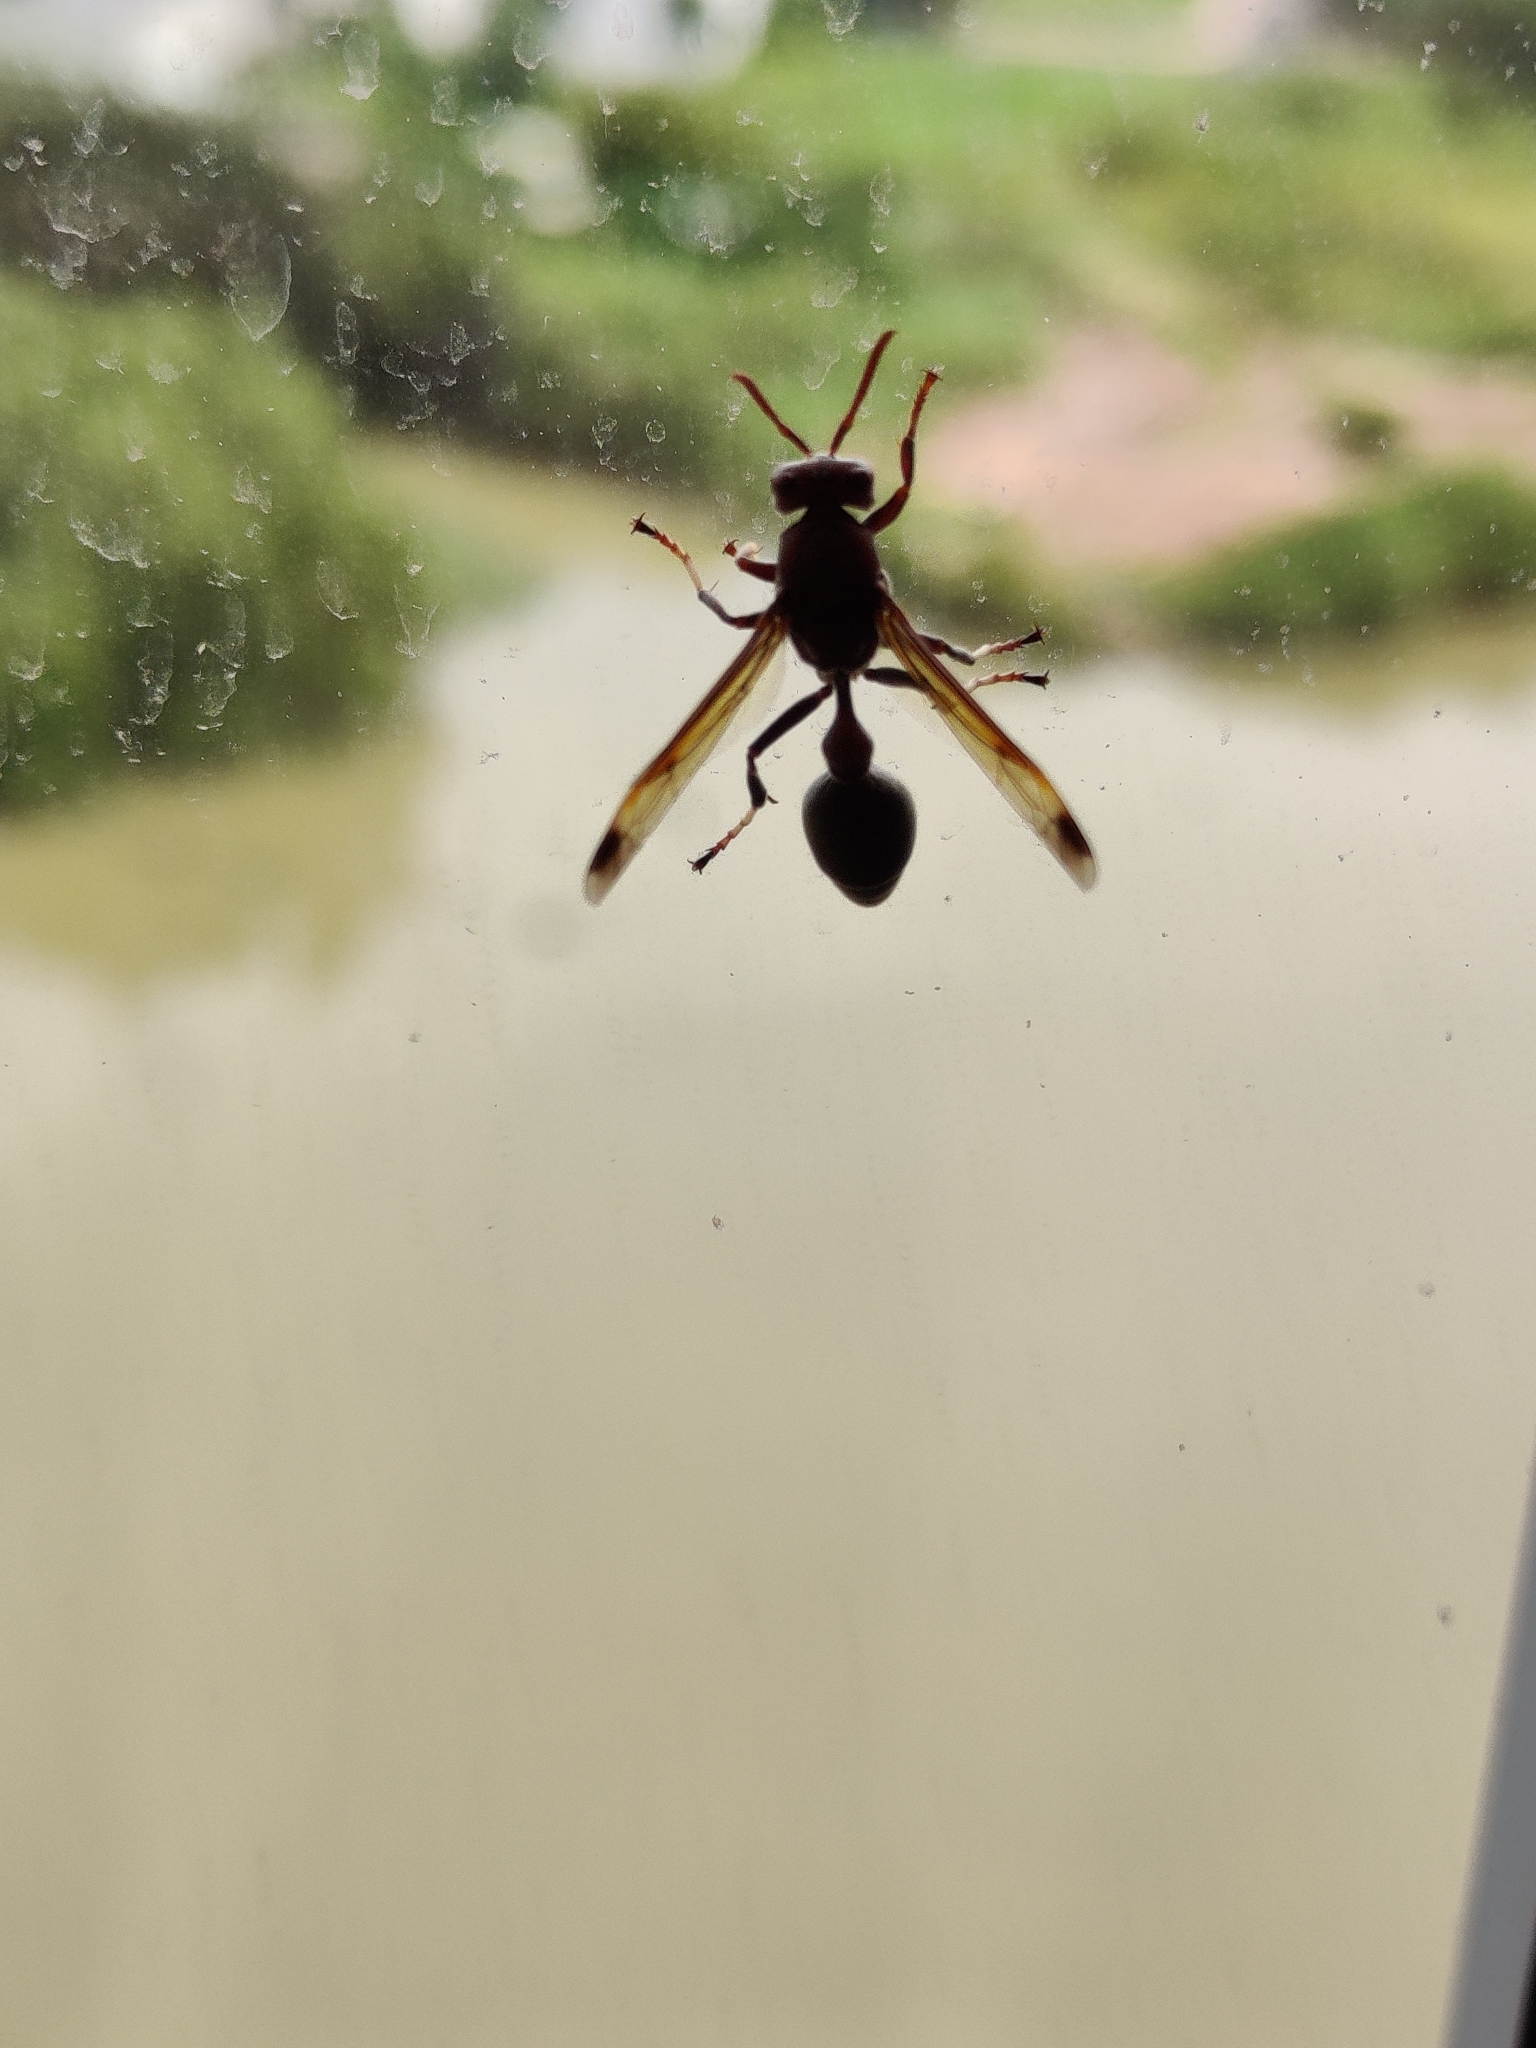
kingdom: Animalia
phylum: Arthropoda
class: Insecta
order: Hymenoptera
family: Vespidae
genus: Ropalidia
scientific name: Ropalidia magnanima
